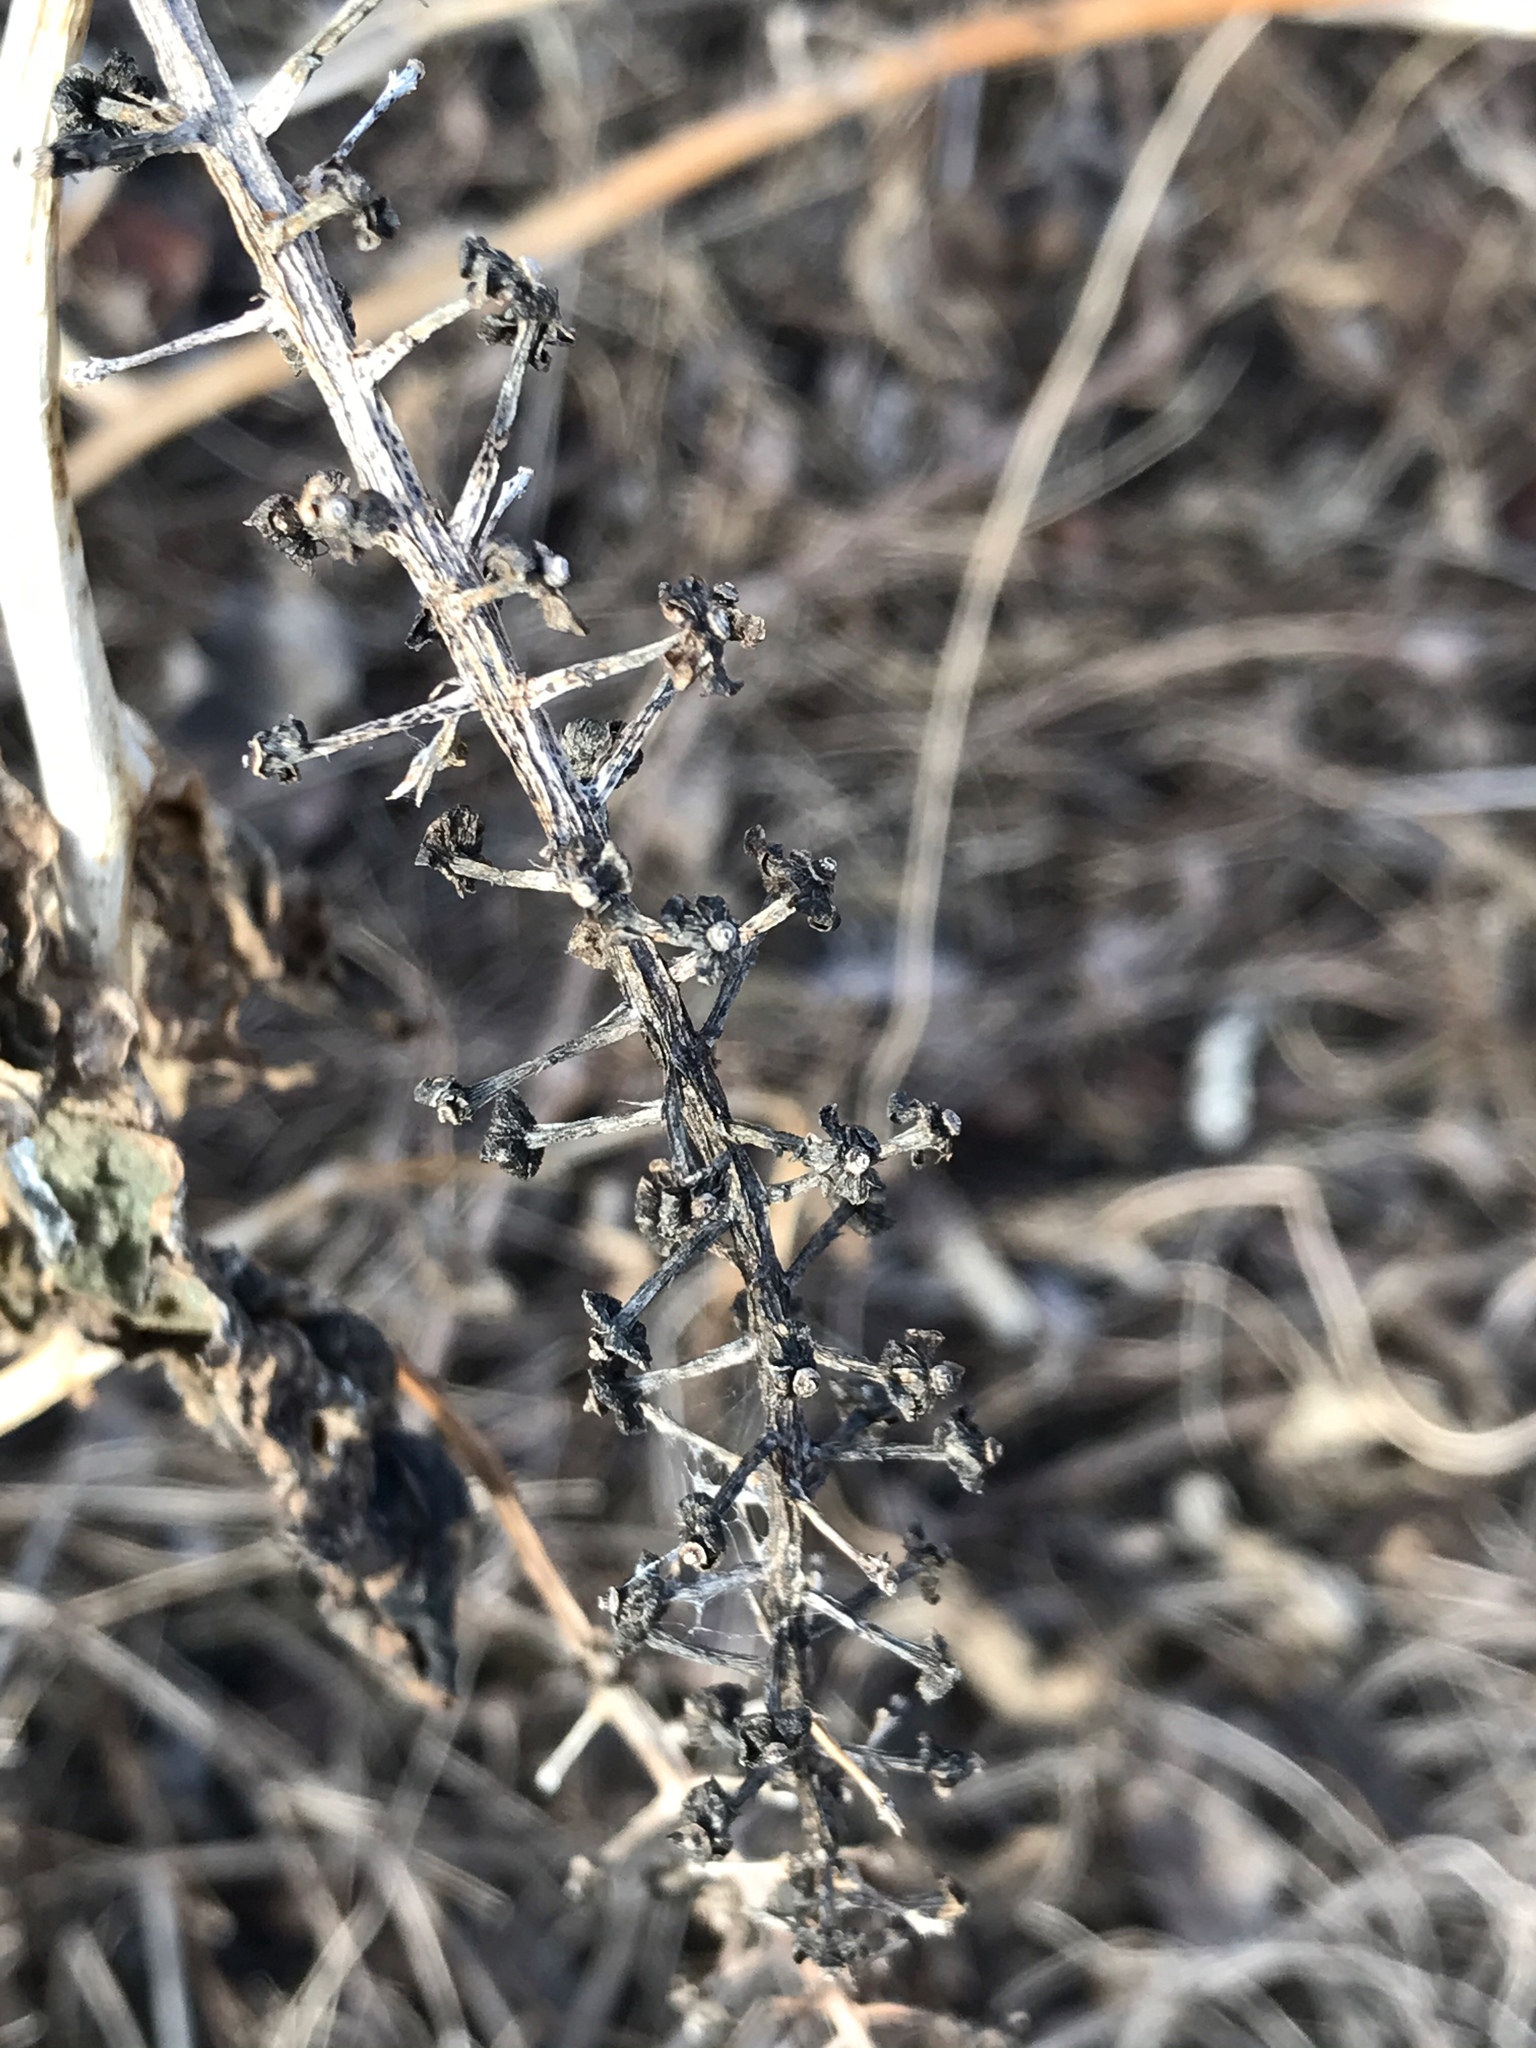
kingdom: Plantae
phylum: Tracheophyta
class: Magnoliopsida
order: Caryophyllales
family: Phytolaccaceae
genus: Phytolacca
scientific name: Phytolacca americana
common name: American pokeweed
